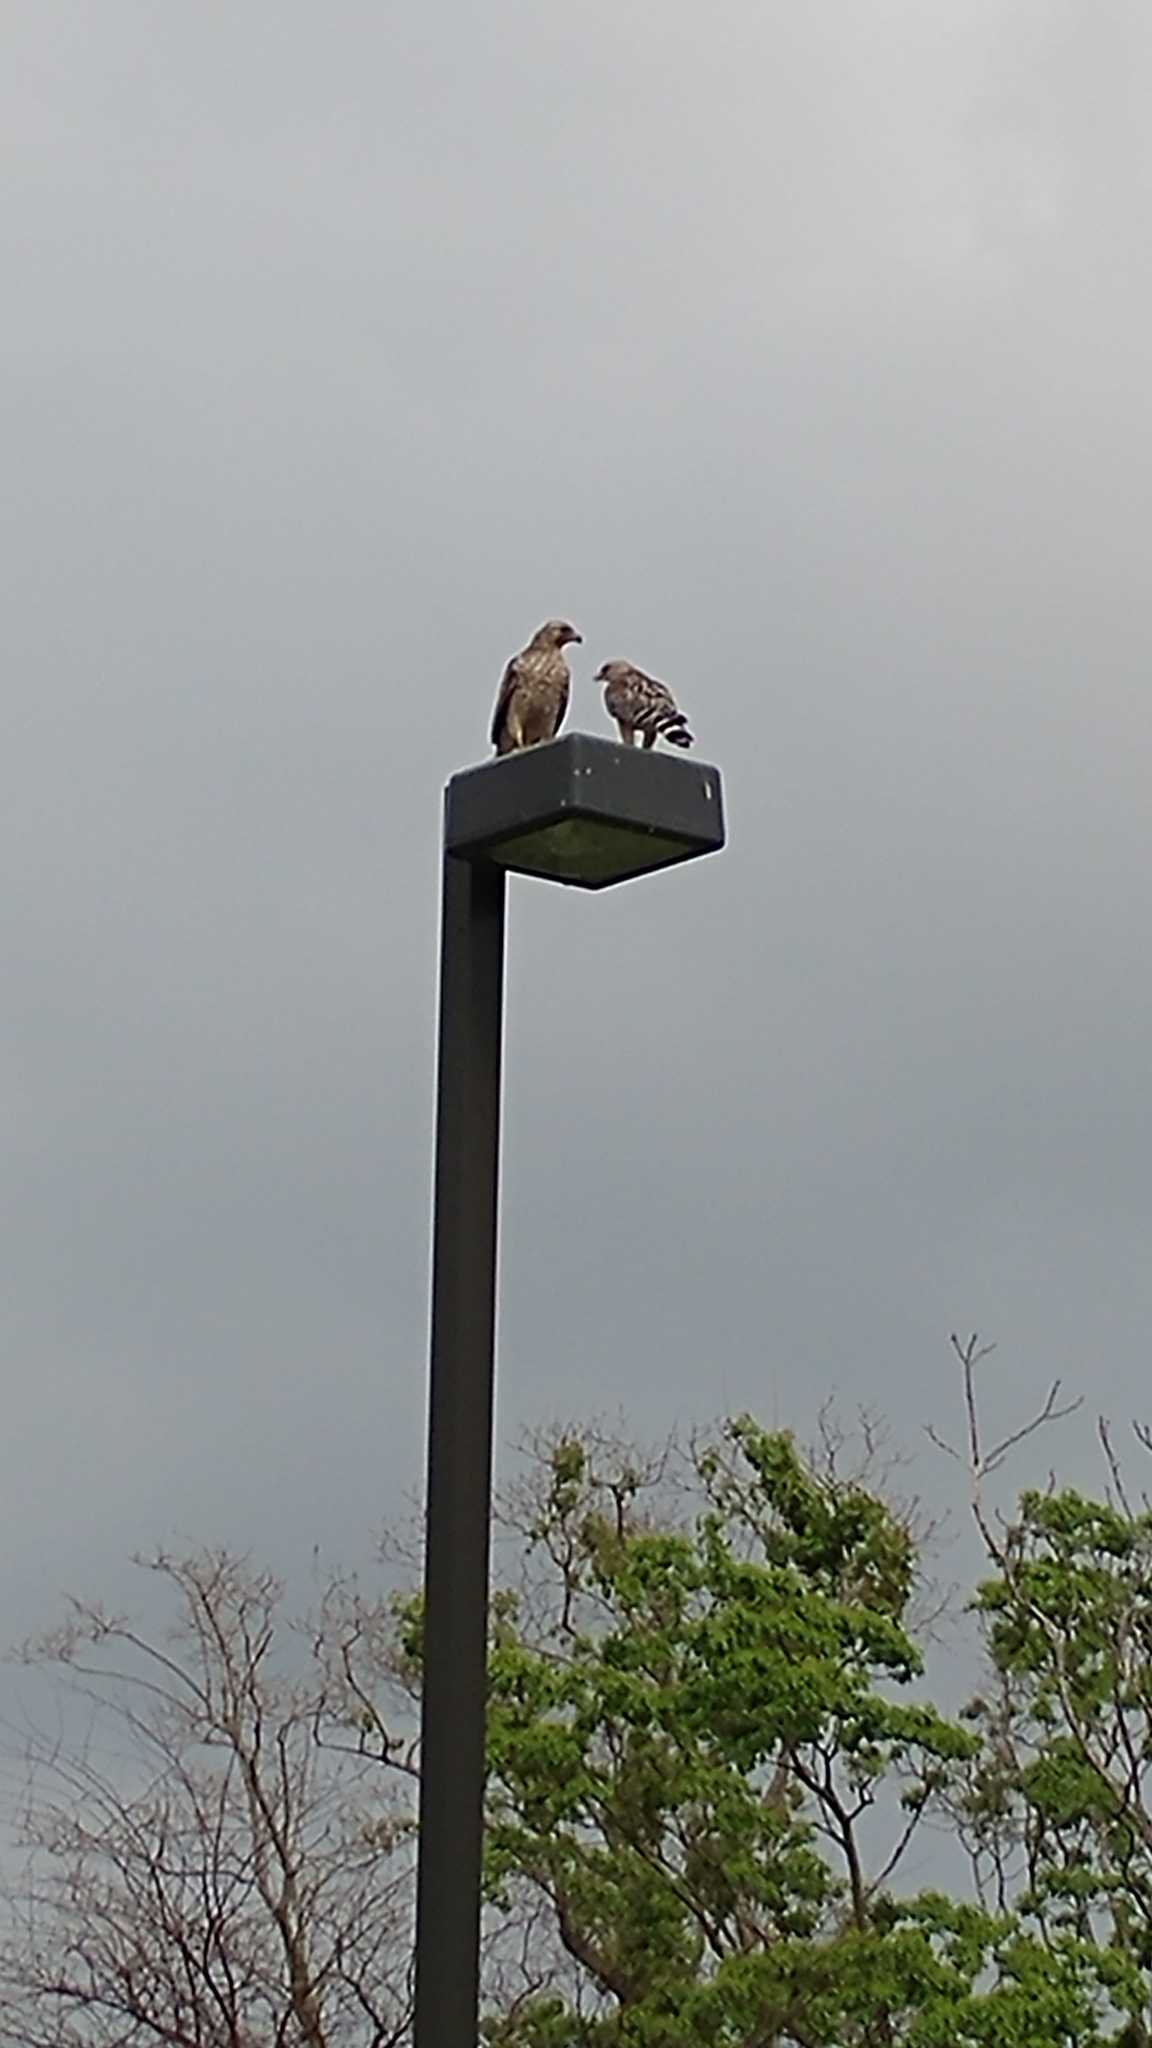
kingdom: Animalia
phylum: Chordata
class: Aves
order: Accipitriformes
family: Accipitridae
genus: Buteo
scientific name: Buteo lineatus
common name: Red-shouldered hawk
